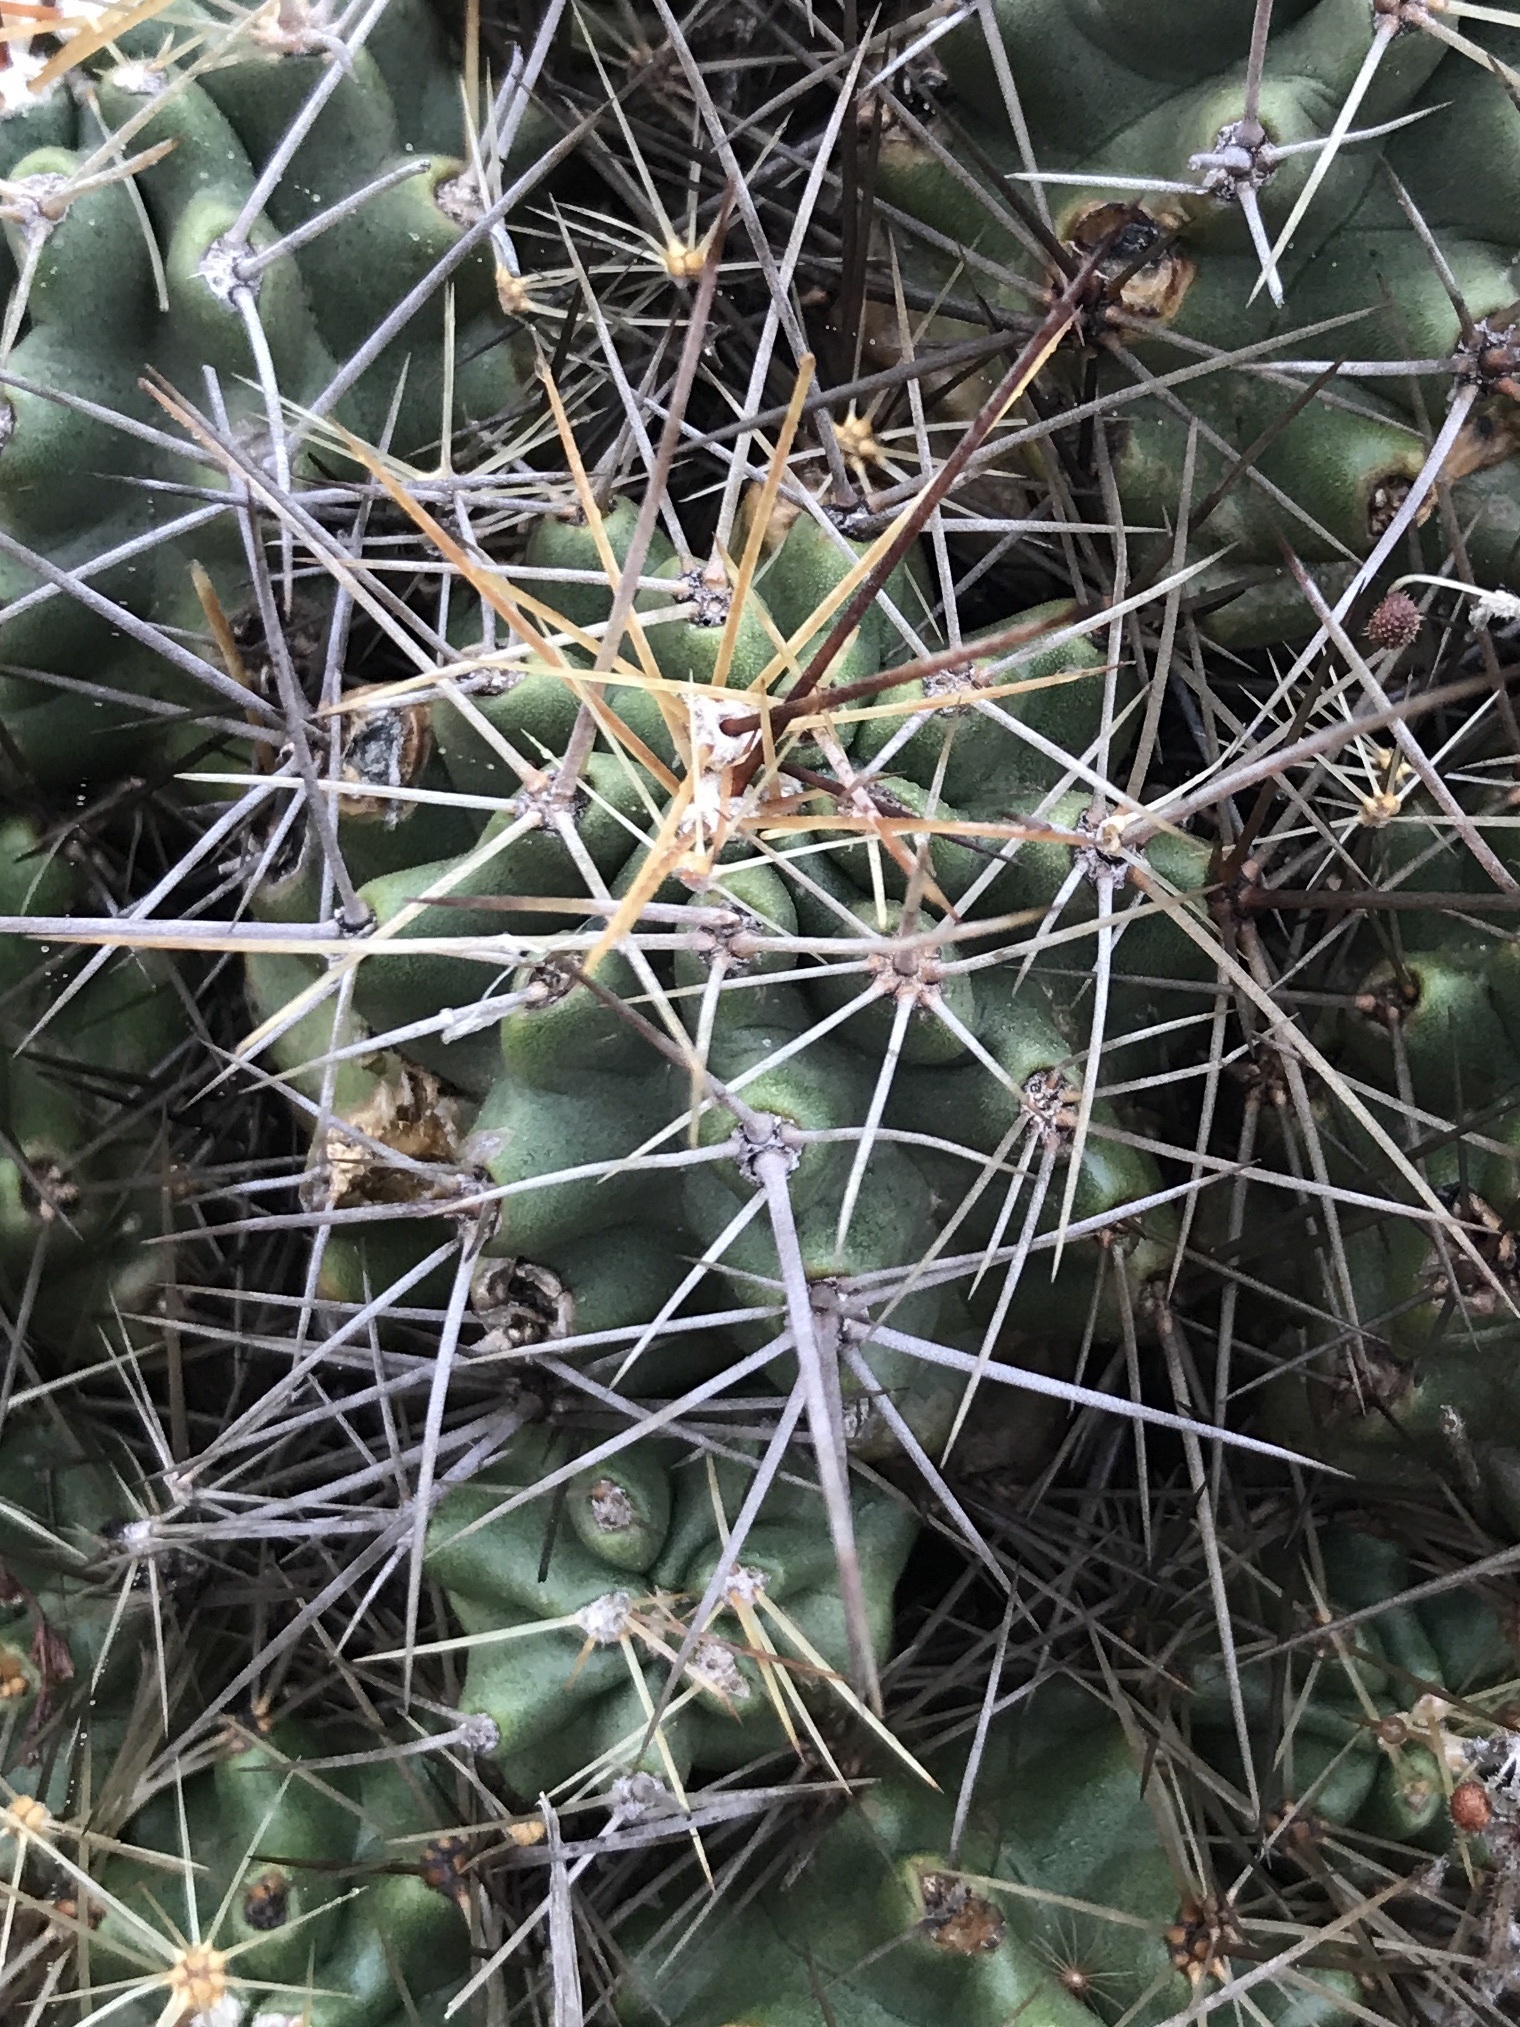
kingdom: Plantae
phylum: Tracheophyta
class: Magnoliopsida
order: Caryophyllales
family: Cactaceae
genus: Echinocereus
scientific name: Echinocereus coccineus
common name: Scarlet hedgehog cactus
